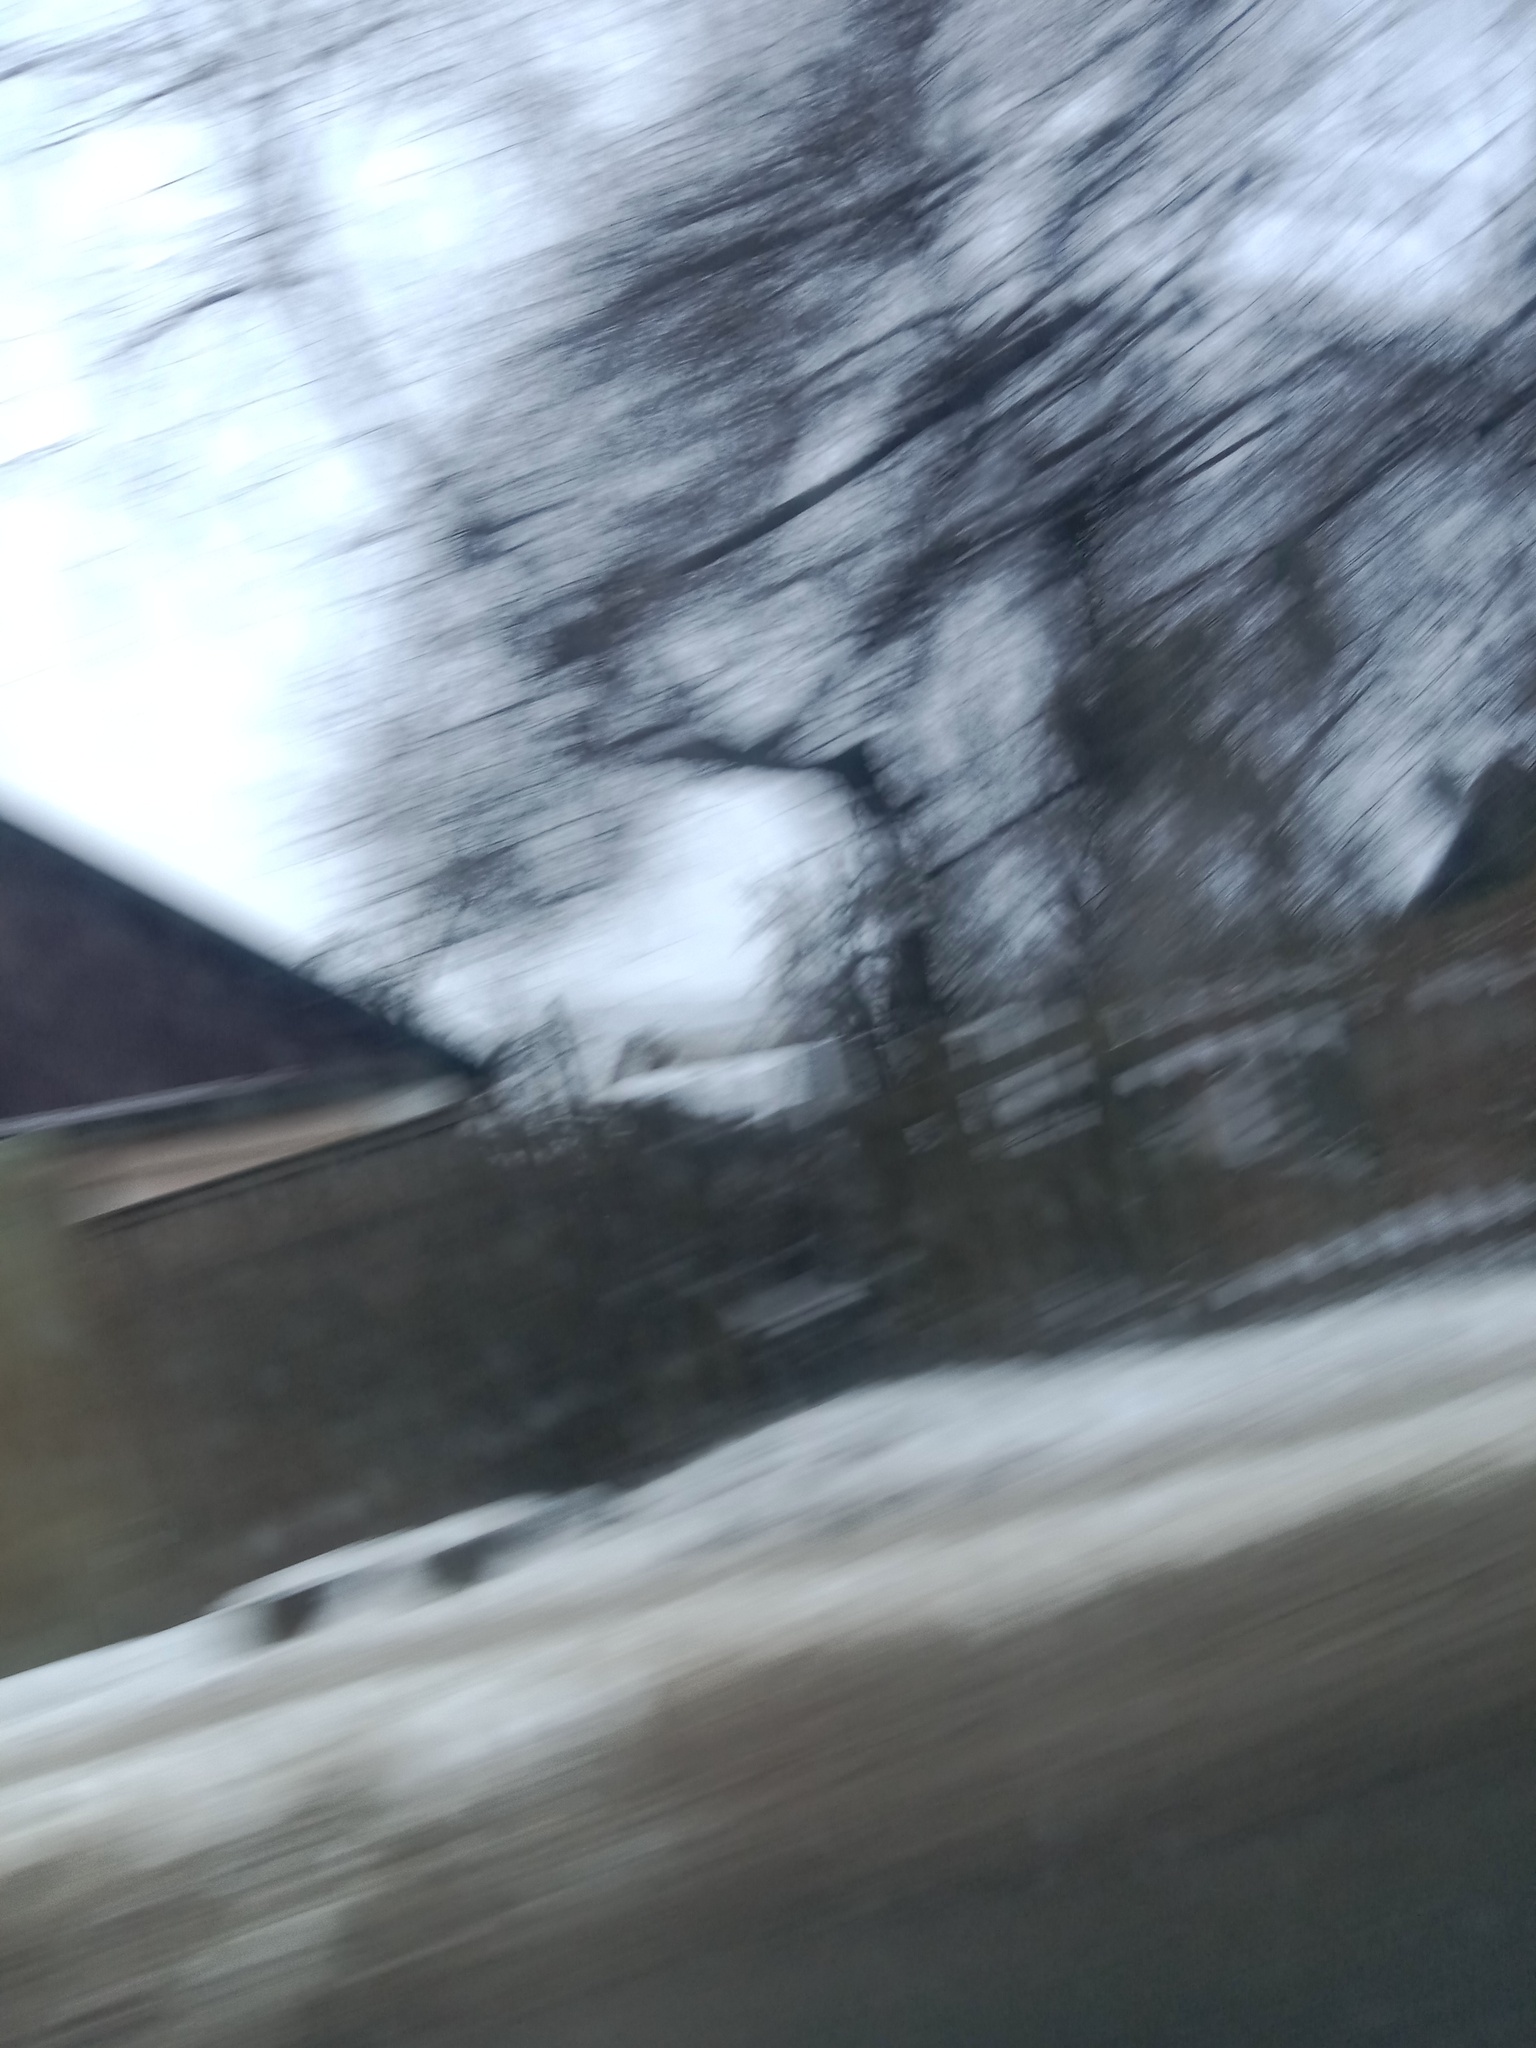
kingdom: Plantae
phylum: Tracheophyta
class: Magnoliopsida
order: Santalales
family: Viscaceae
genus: Viscum
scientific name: Viscum album
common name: Mistletoe
